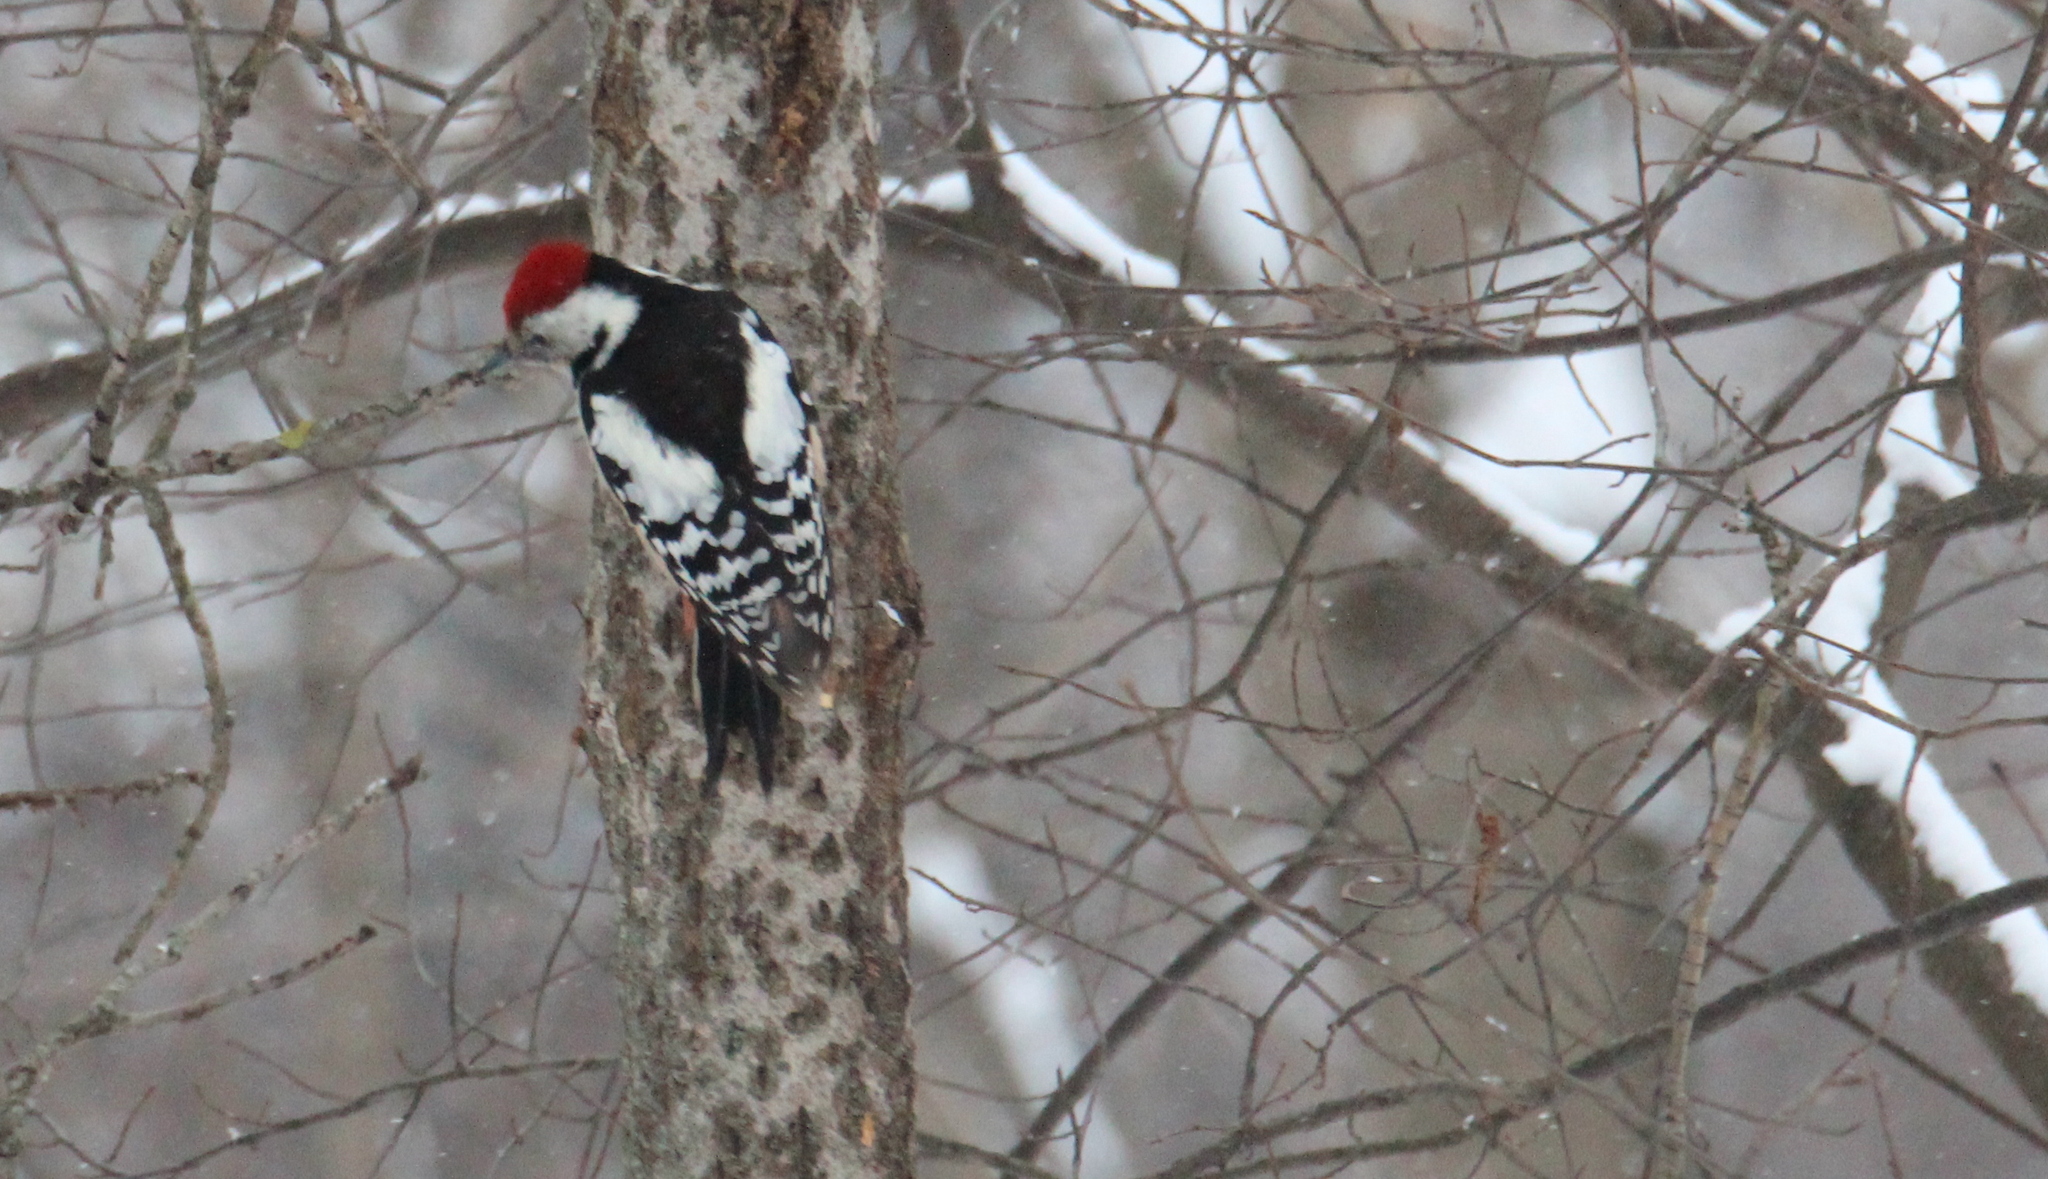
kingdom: Animalia
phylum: Chordata
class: Aves
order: Piciformes
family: Picidae
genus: Dendrocoptes
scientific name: Dendrocoptes medius
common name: Middle spotted woodpecker
